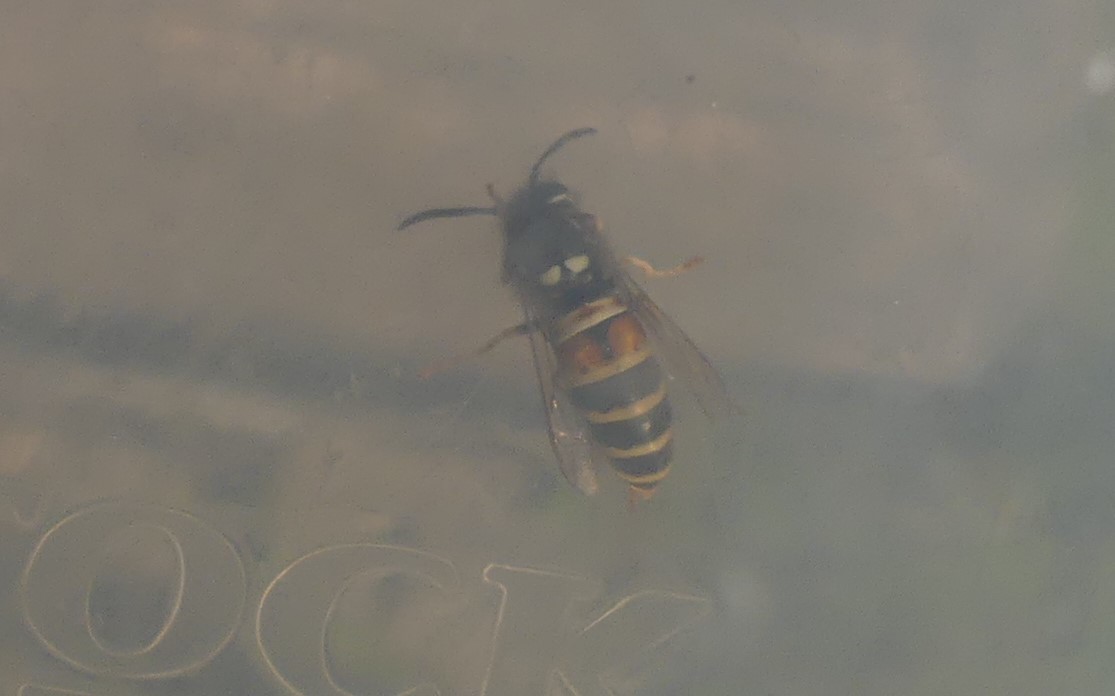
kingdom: Animalia
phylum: Arthropoda
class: Insecta
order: Hymenoptera
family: Vespidae
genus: Vespula
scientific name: Vespula rufa
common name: Red wasp
